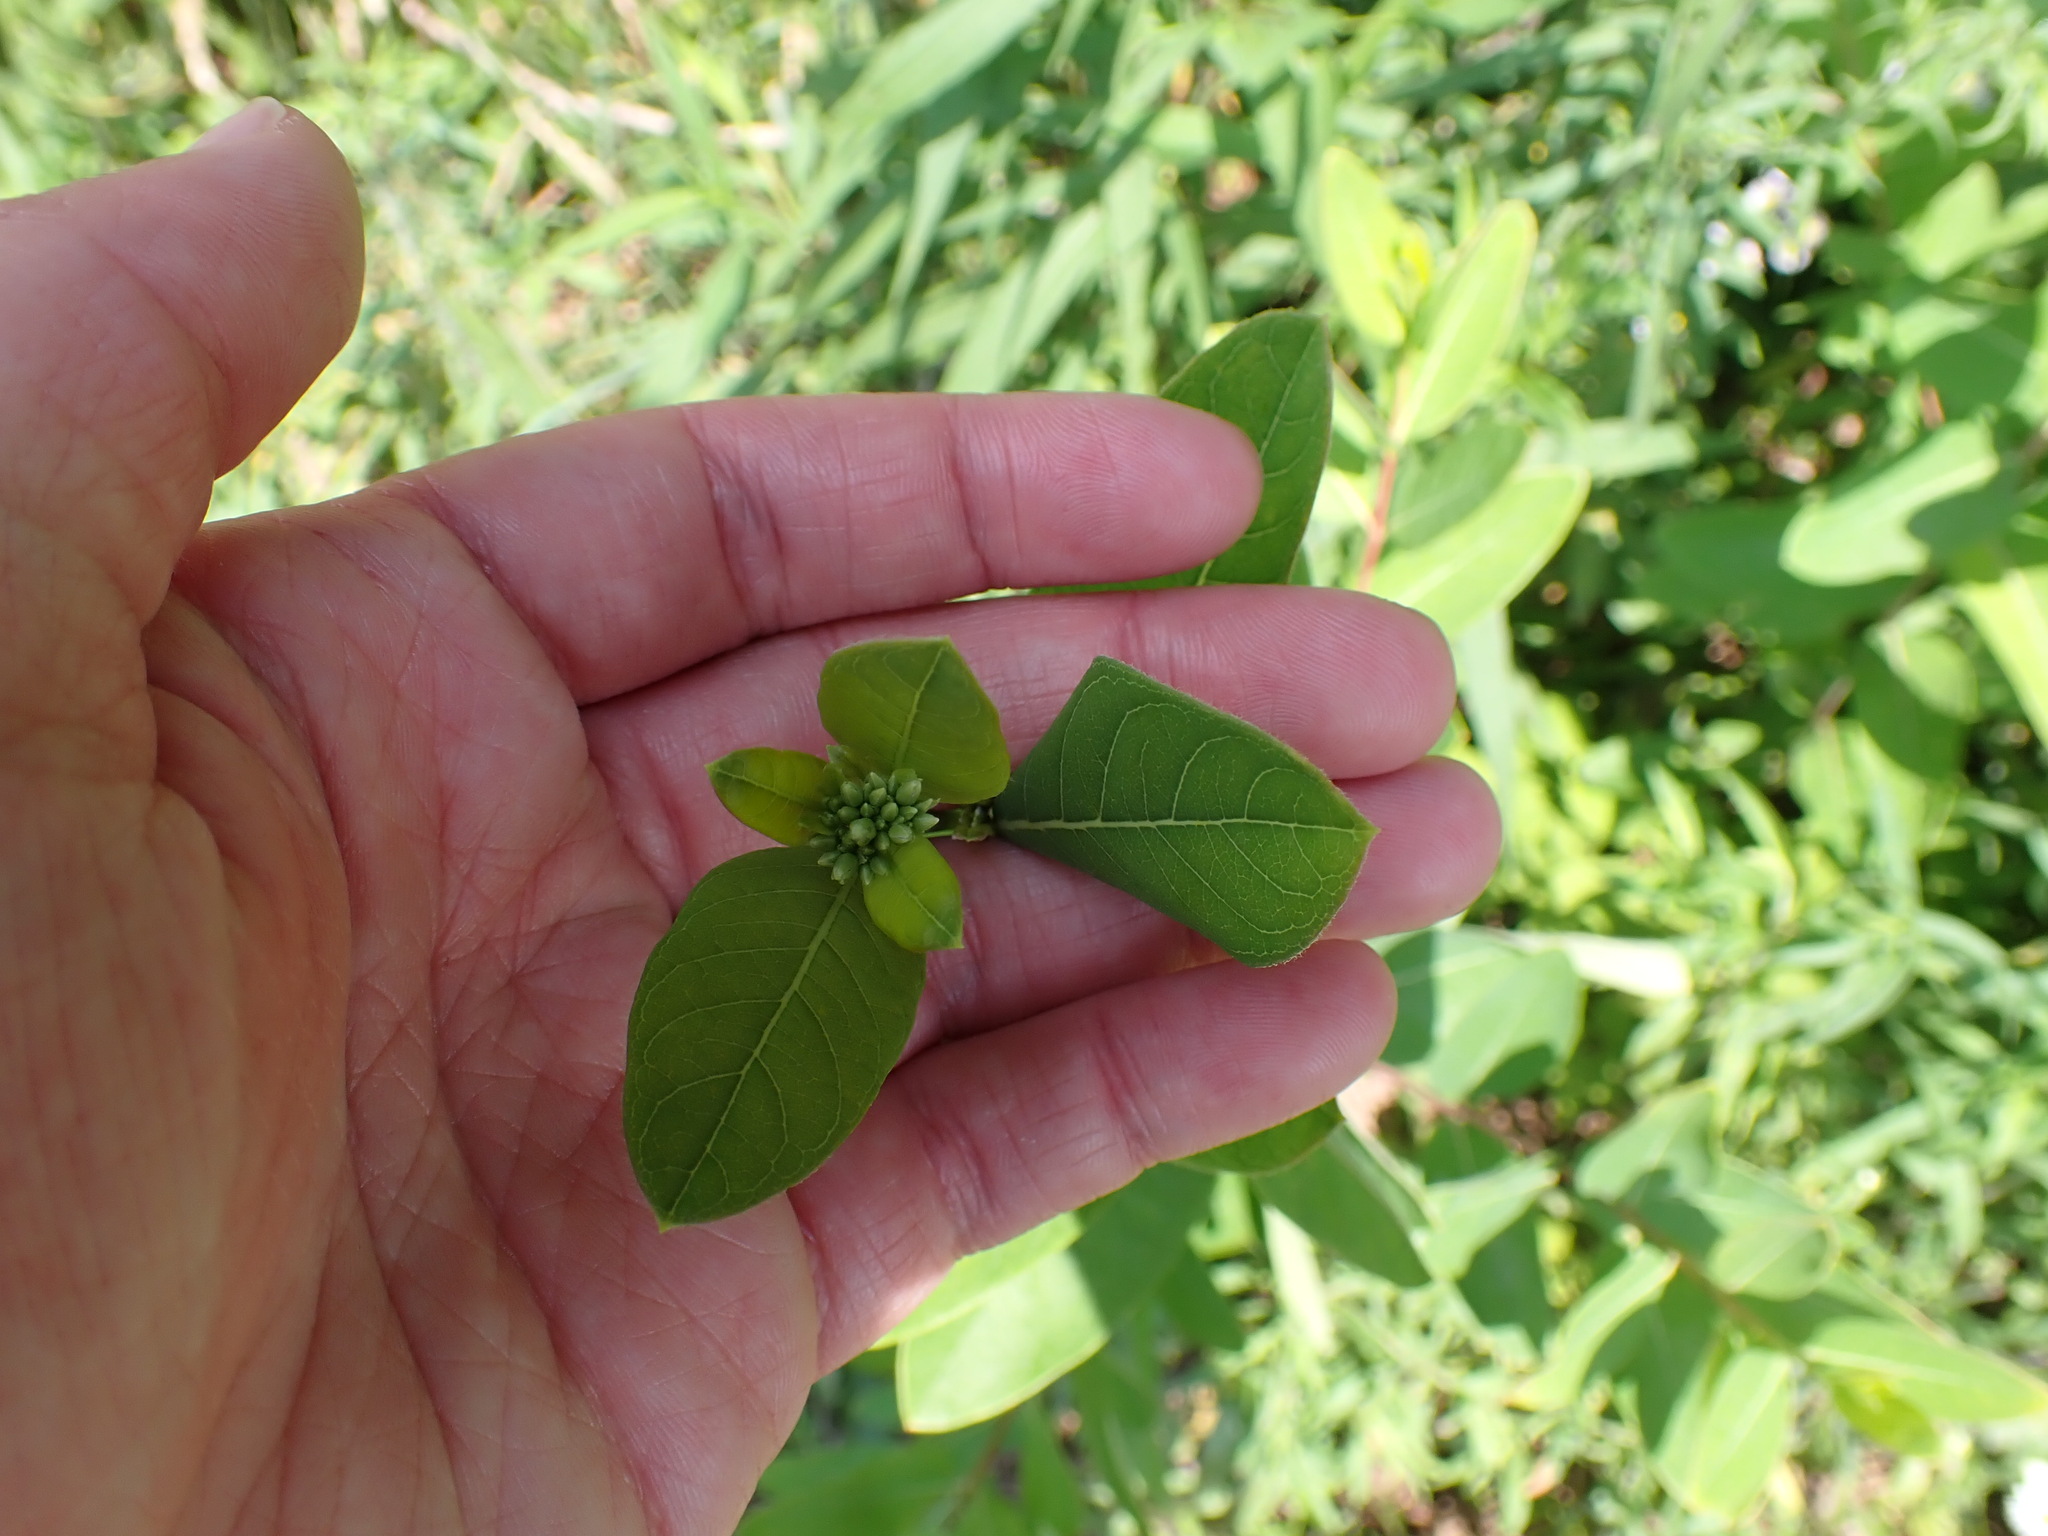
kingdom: Plantae
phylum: Tracheophyta
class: Magnoliopsida
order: Gentianales
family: Apocynaceae
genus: Apocynum
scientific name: Apocynum cannabinum
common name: Hemp dogbane
